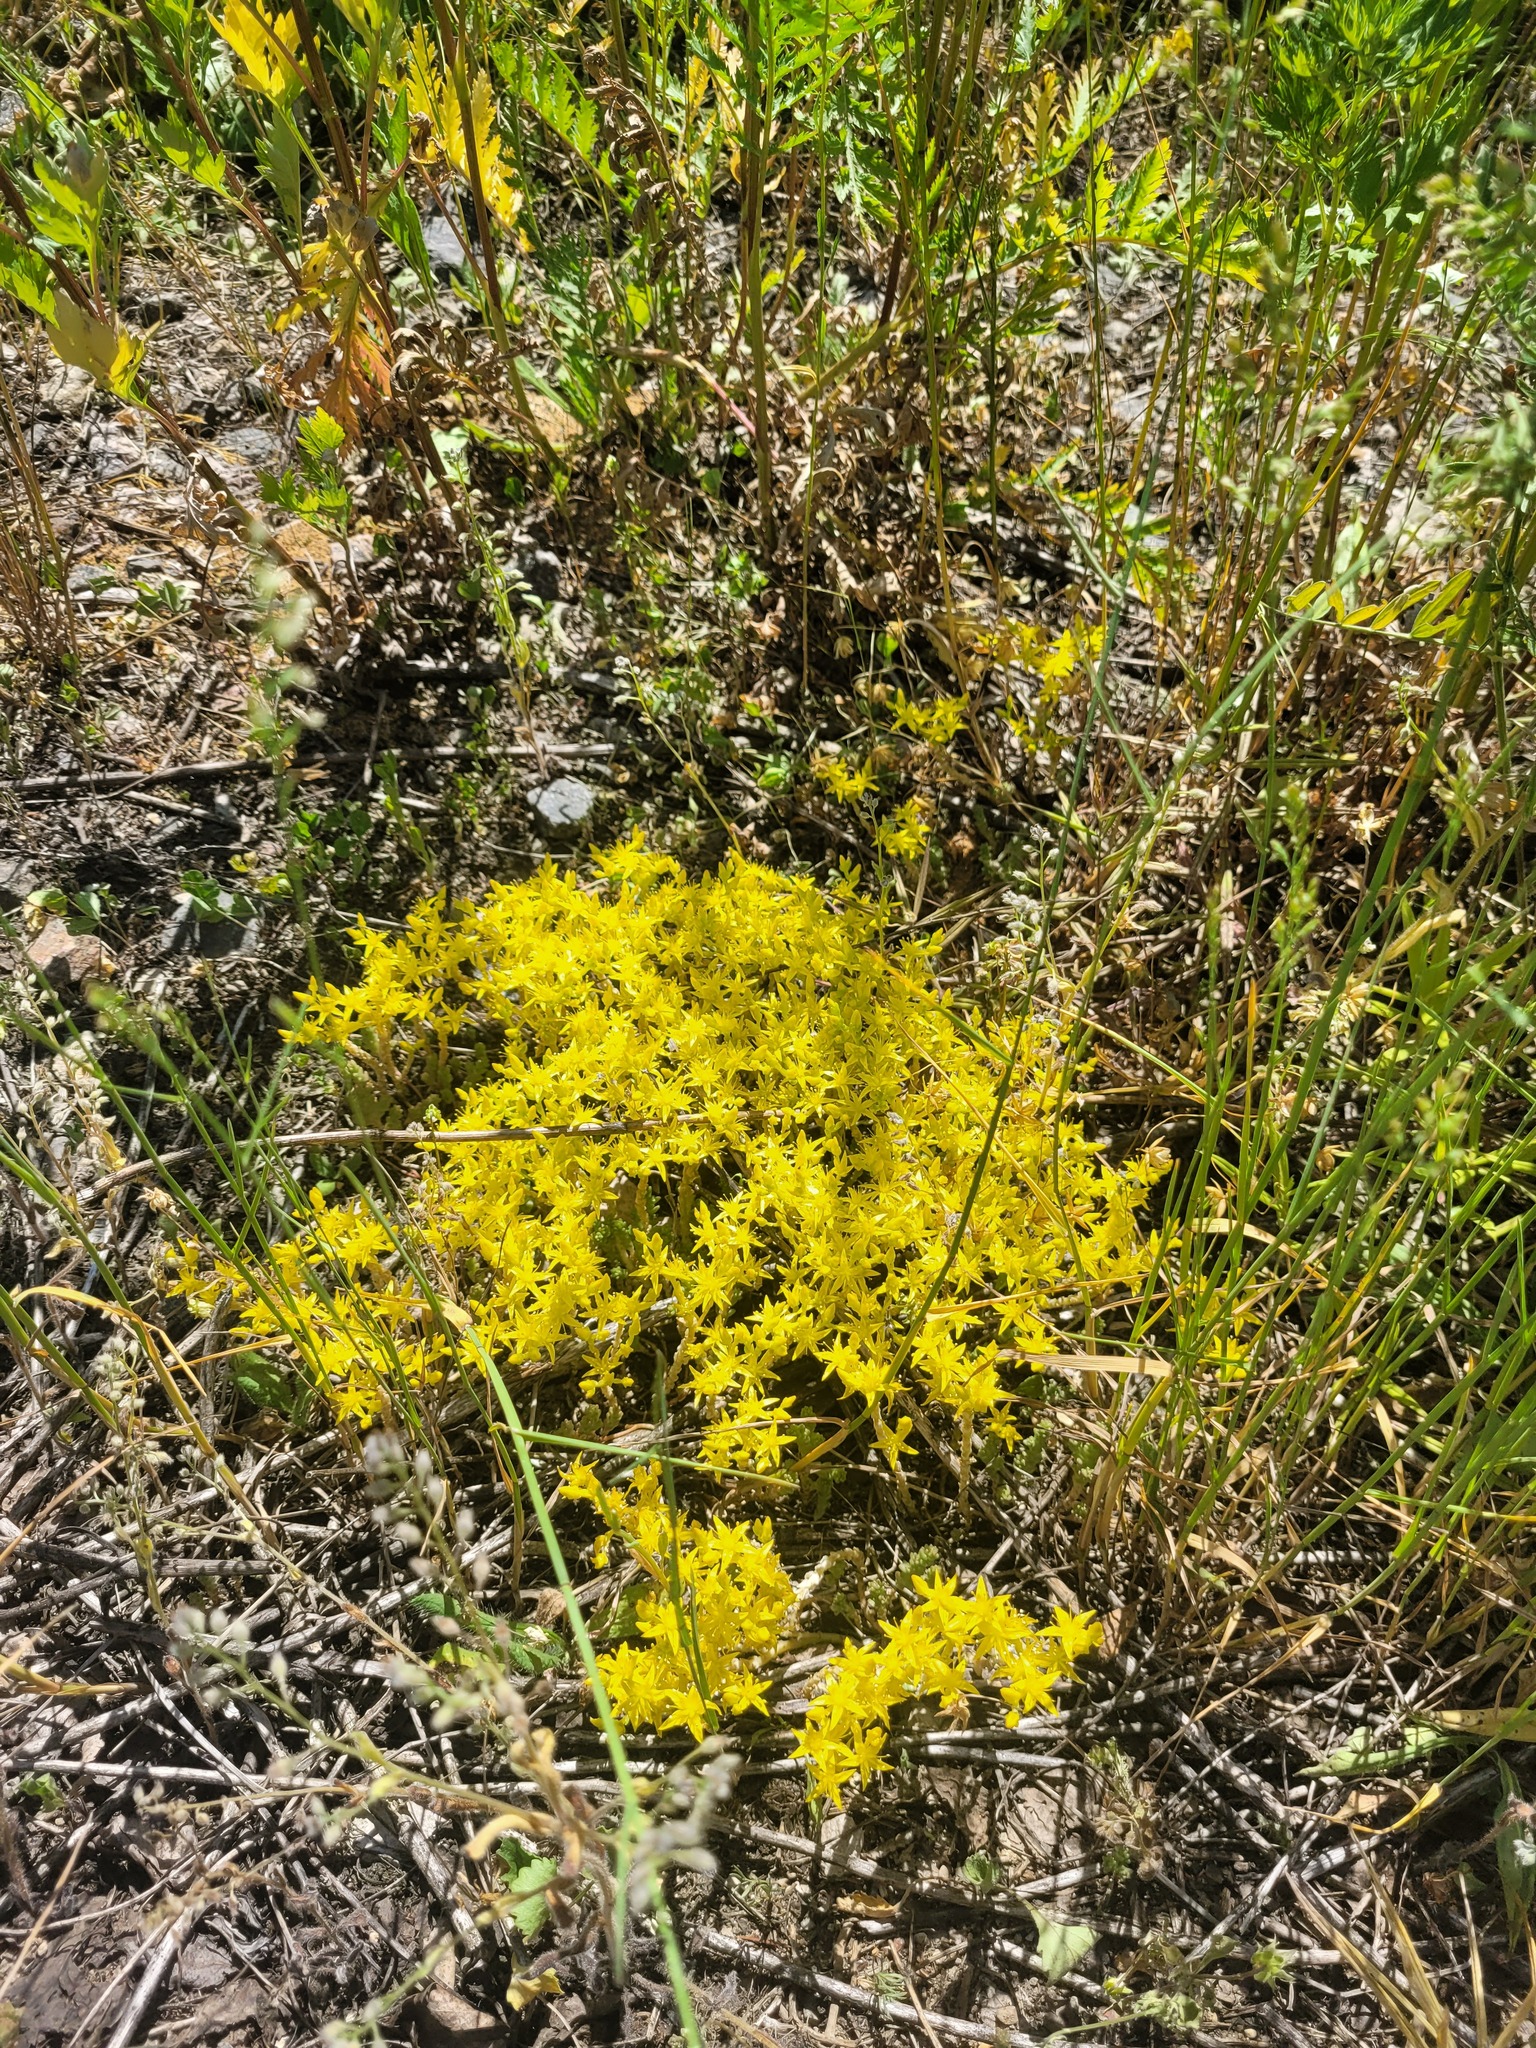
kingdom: Plantae
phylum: Tracheophyta
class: Magnoliopsida
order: Saxifragales
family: Crassulaceae
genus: Sedum
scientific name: Sedum acre
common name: Biting stonecrop
